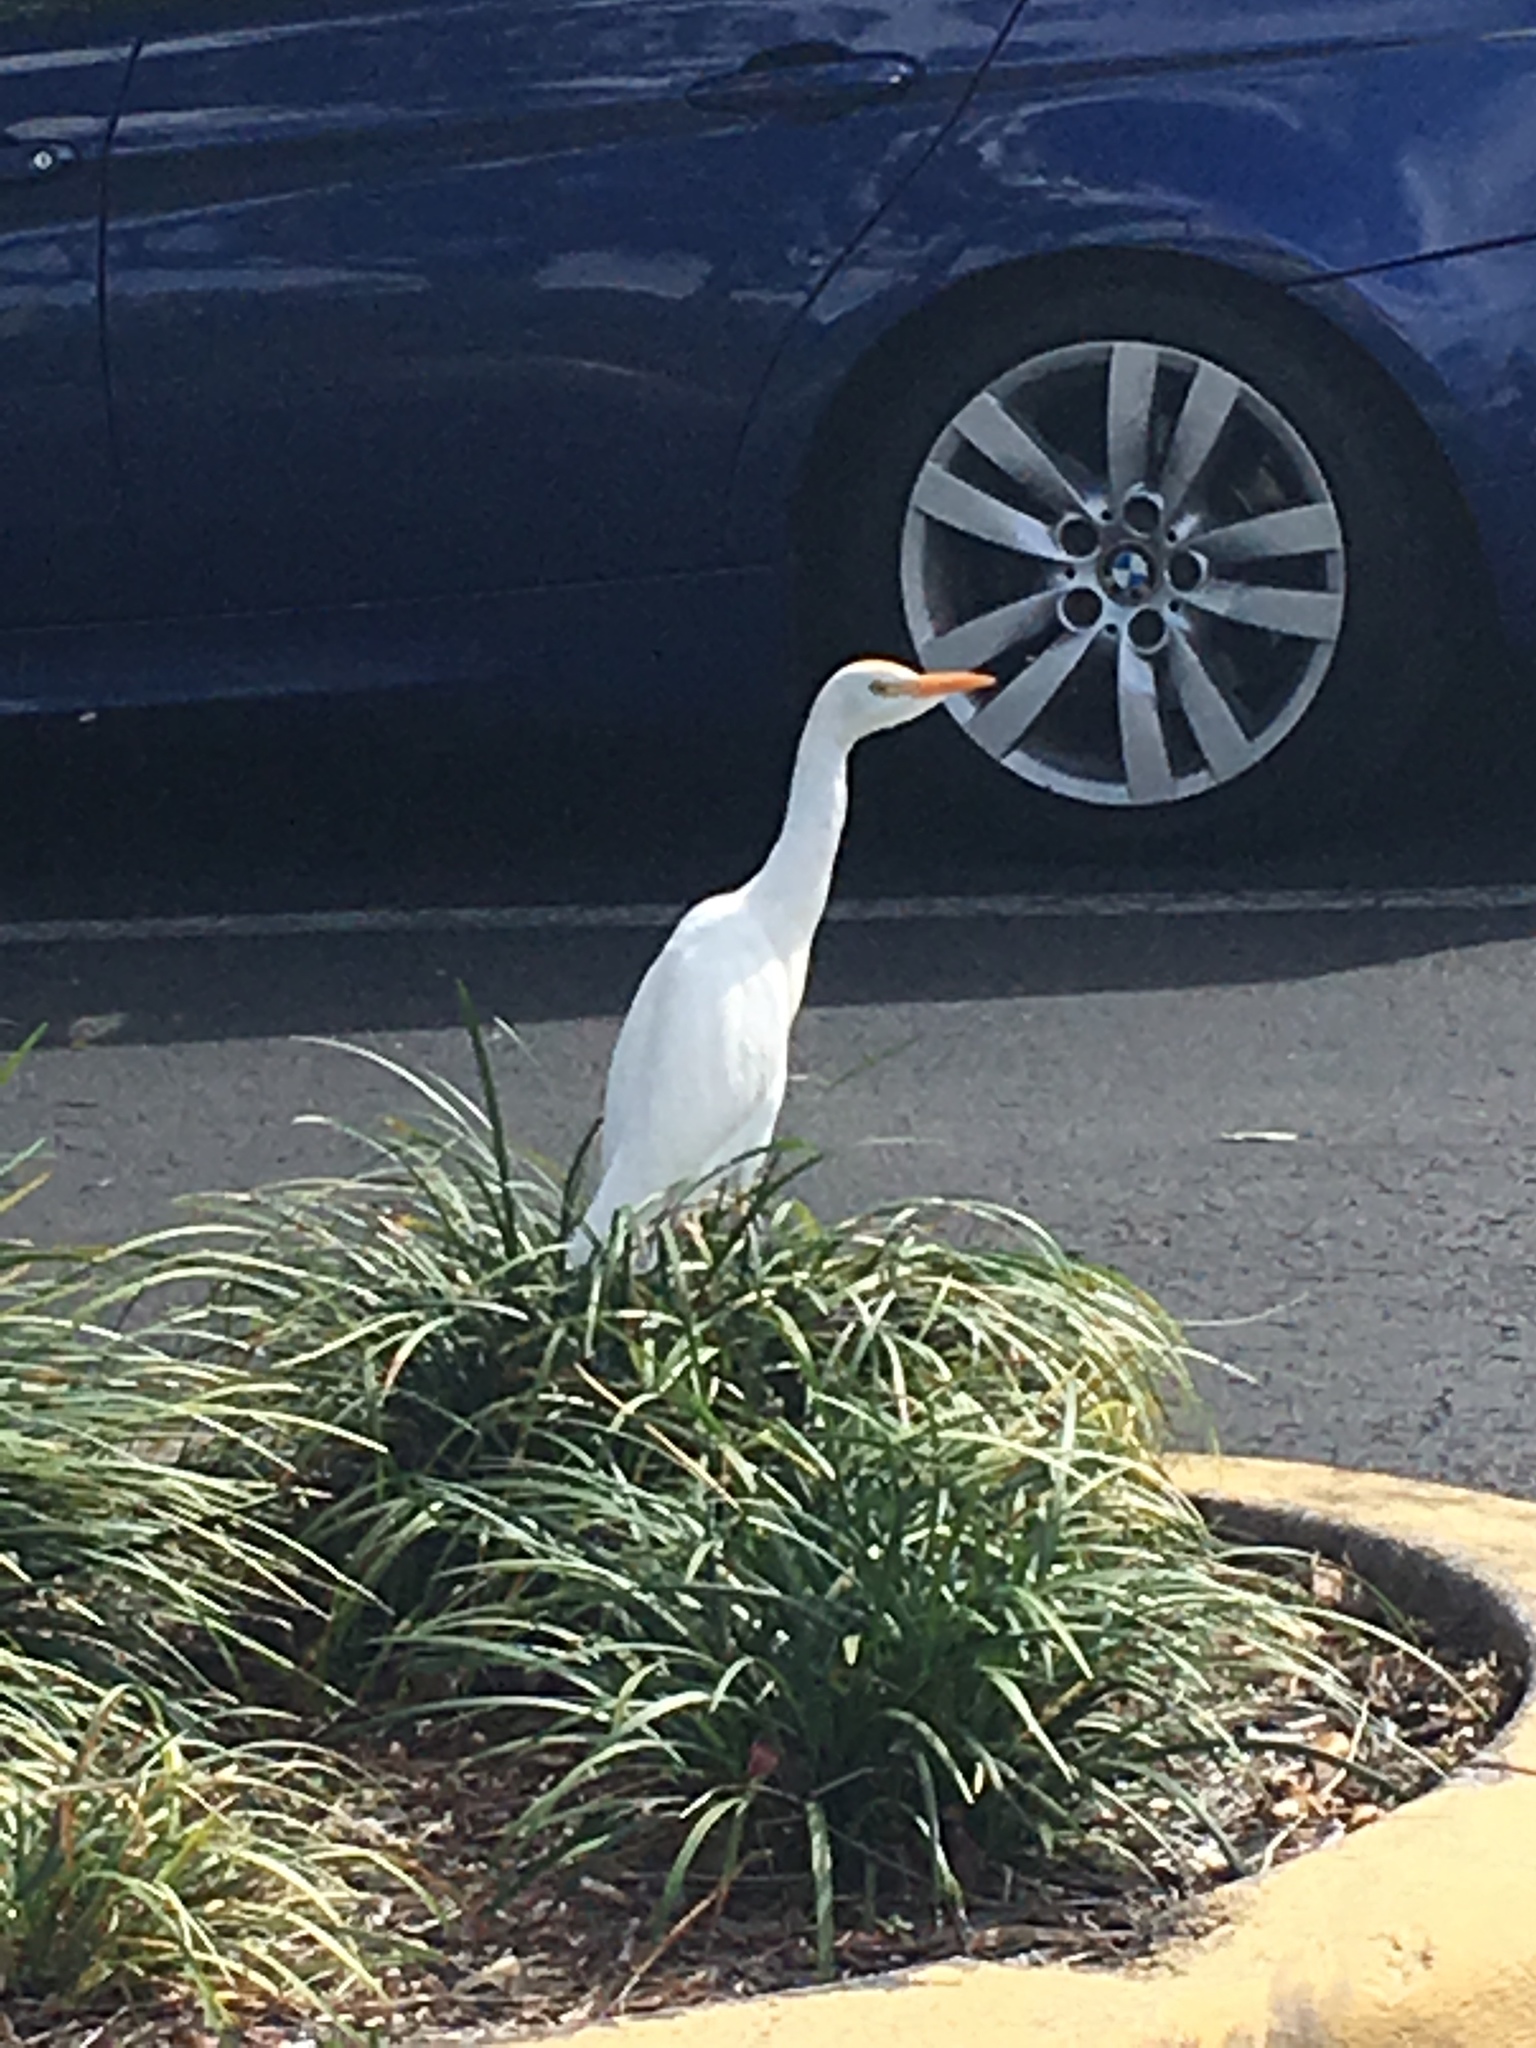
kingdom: Animalia
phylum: Chordata
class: Aves
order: Pelecaniformes
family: Ardeidae
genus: Bubulcus
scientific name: Bubulcus ibis
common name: Cattle egret
